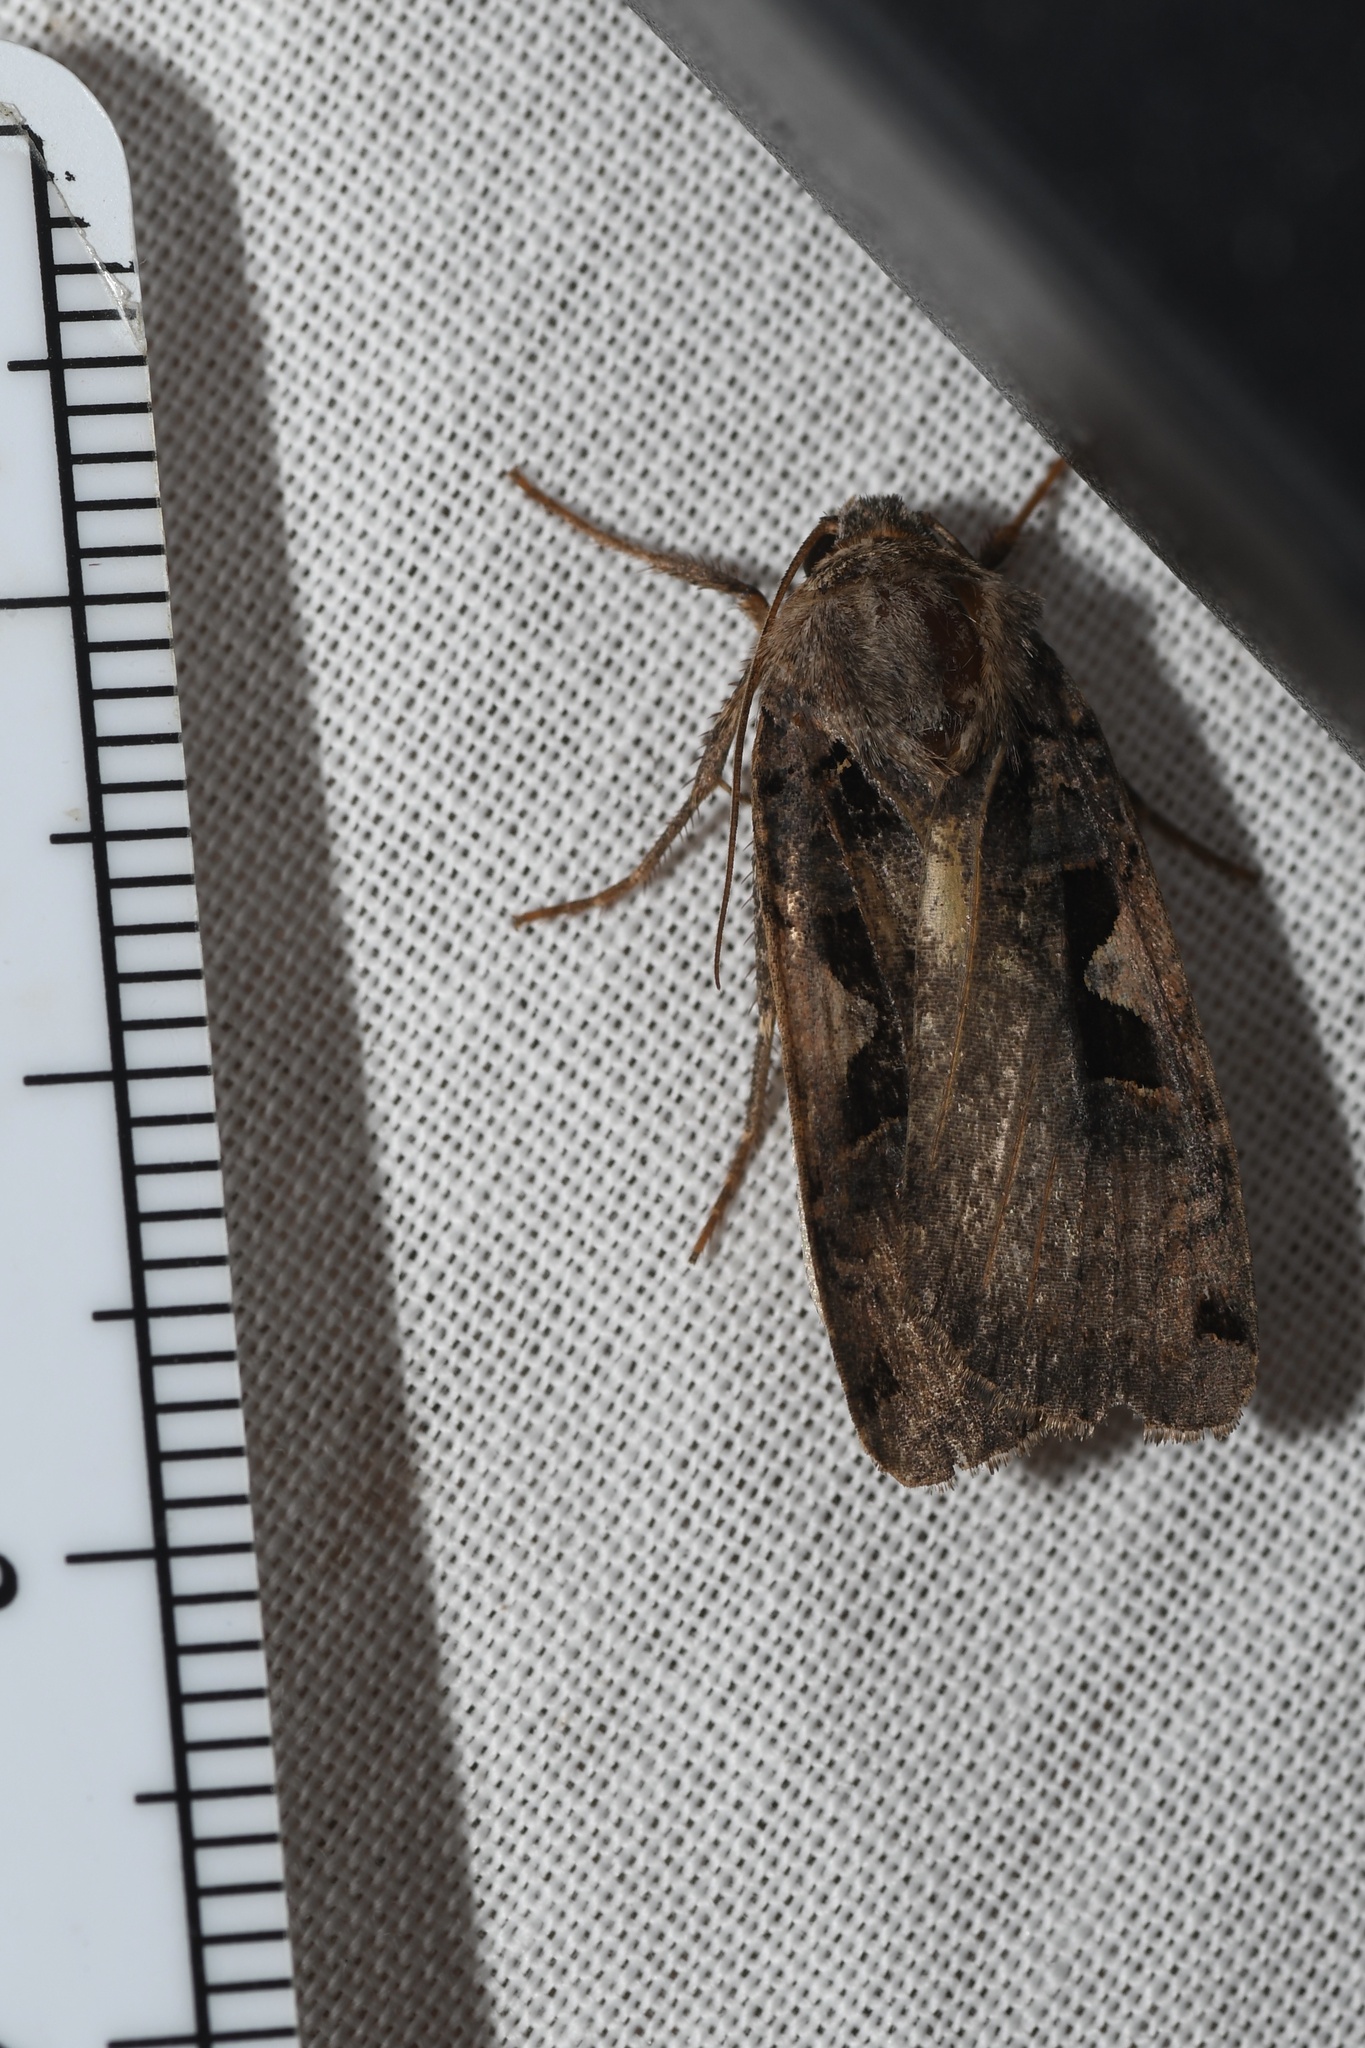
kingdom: Animalia
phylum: Arthropoda
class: Insecta
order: Lepidoptera
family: Noctuidae
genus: Xestia
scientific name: Xestia
